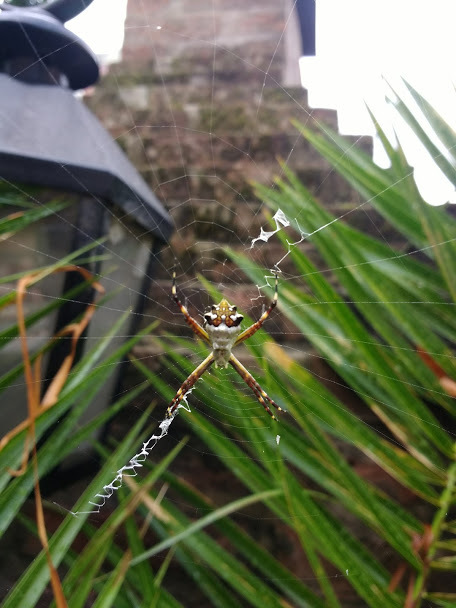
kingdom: Animalia
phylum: Arthropoda
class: Arachnida
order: Araneae
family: Araneidae
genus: Argiope
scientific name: Argiope argentata
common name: Orb weavers
